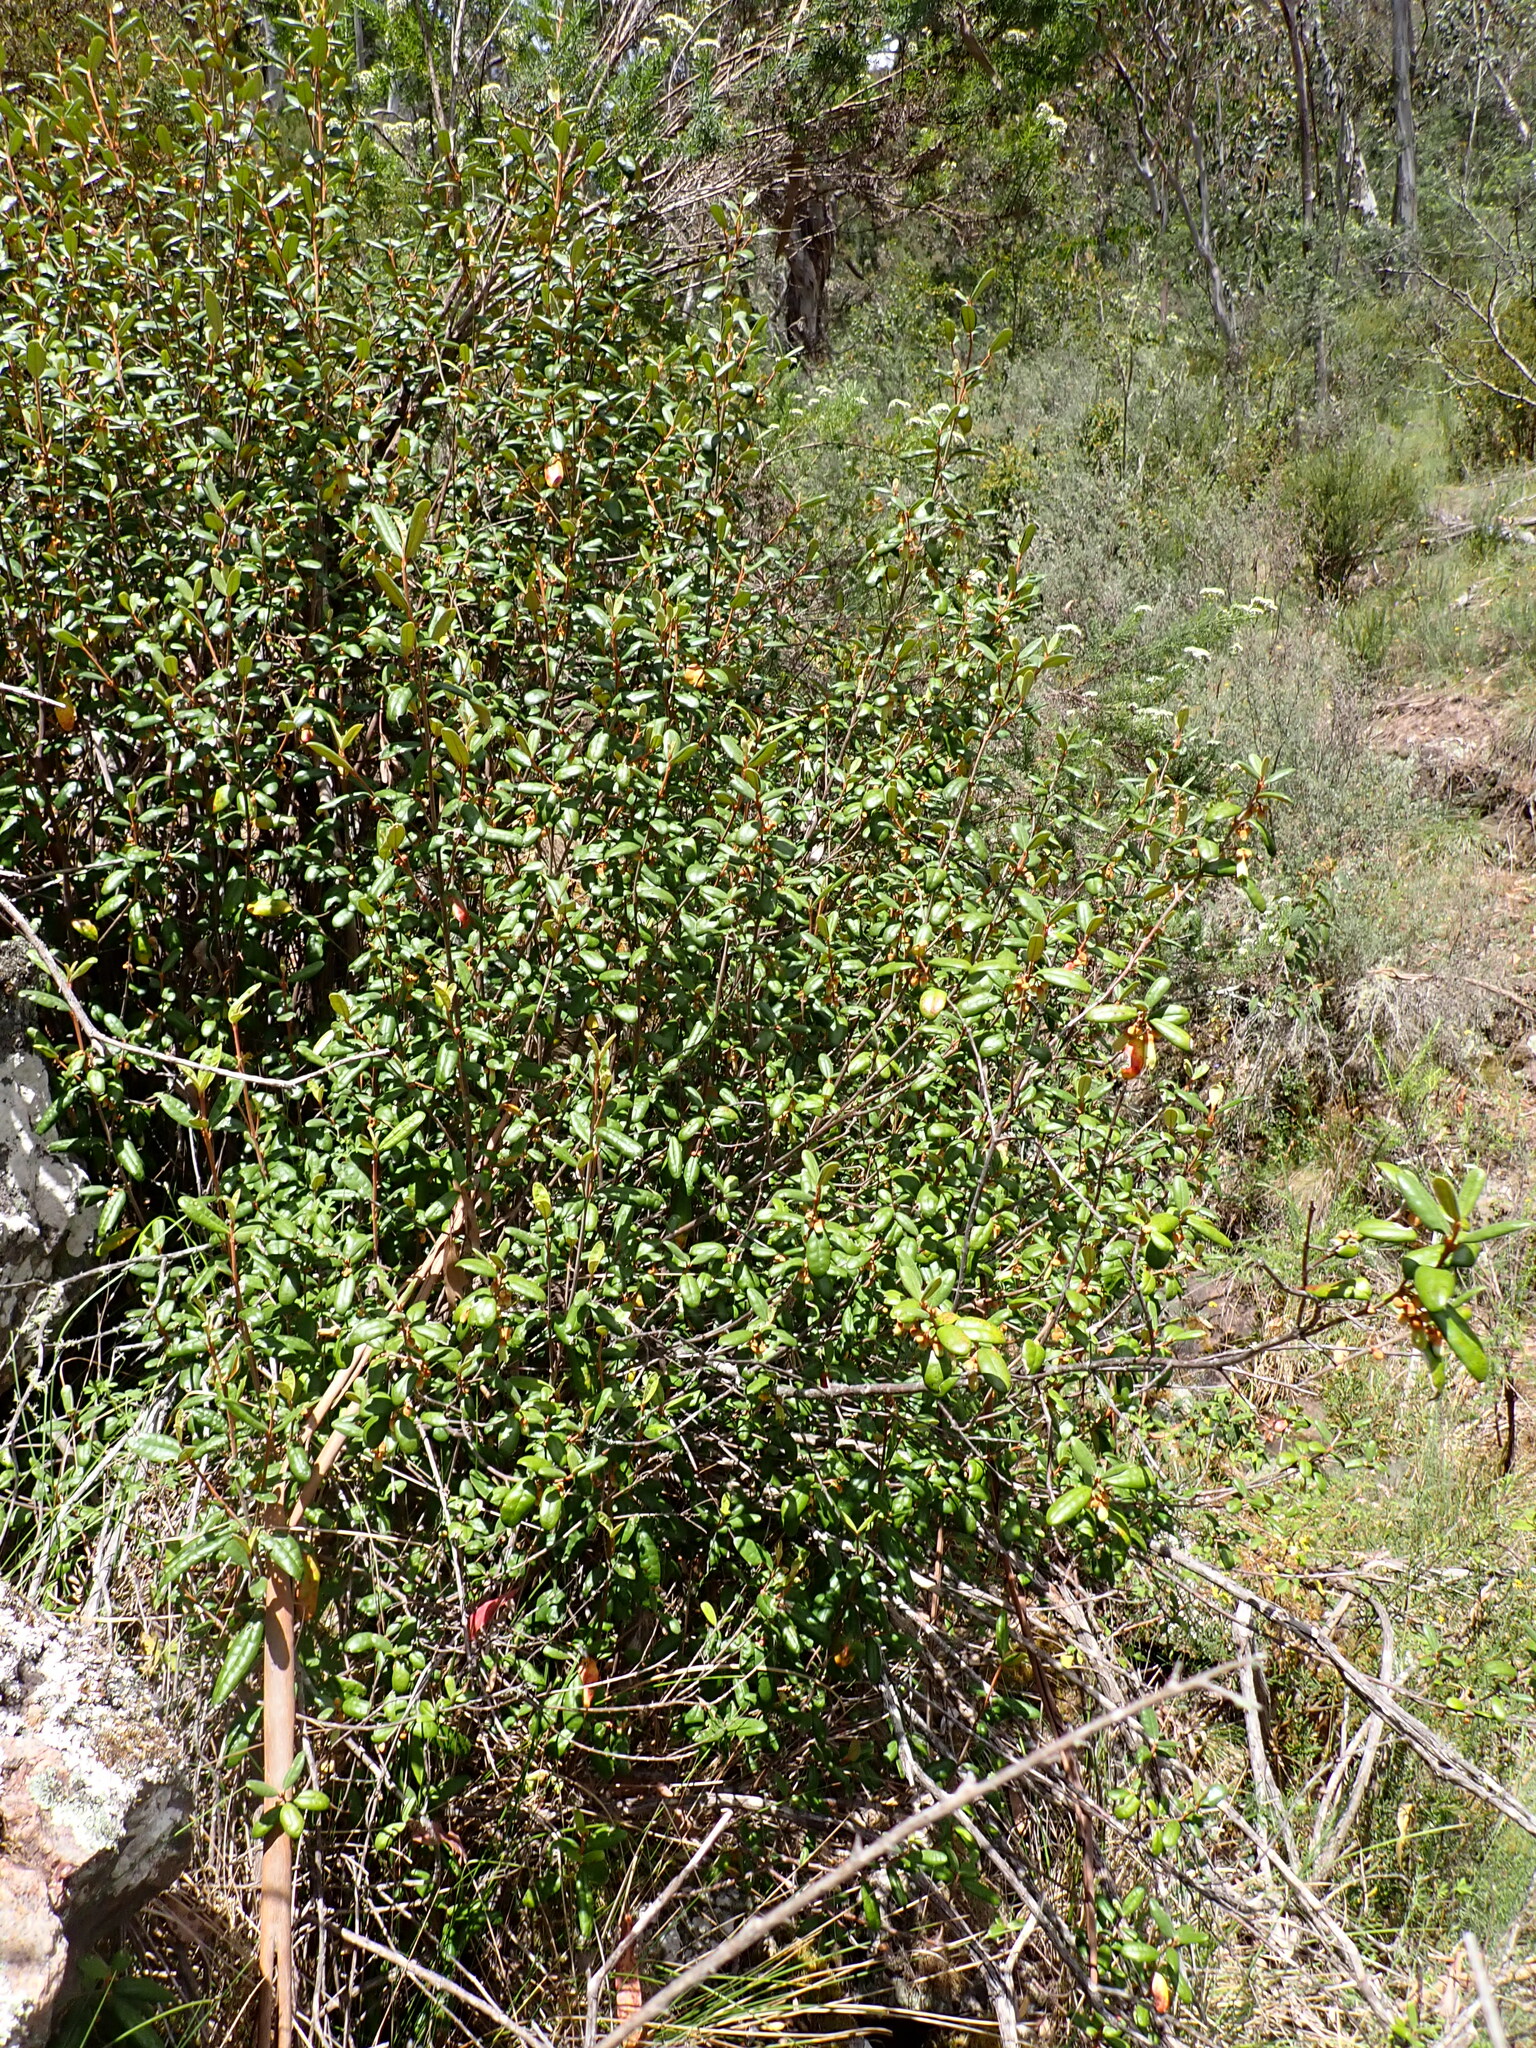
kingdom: Plantae
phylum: Tracheophyta
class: Magnoliopsida
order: Sapindales
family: Rutaceae
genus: Correa
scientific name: Correa lawrenceana
